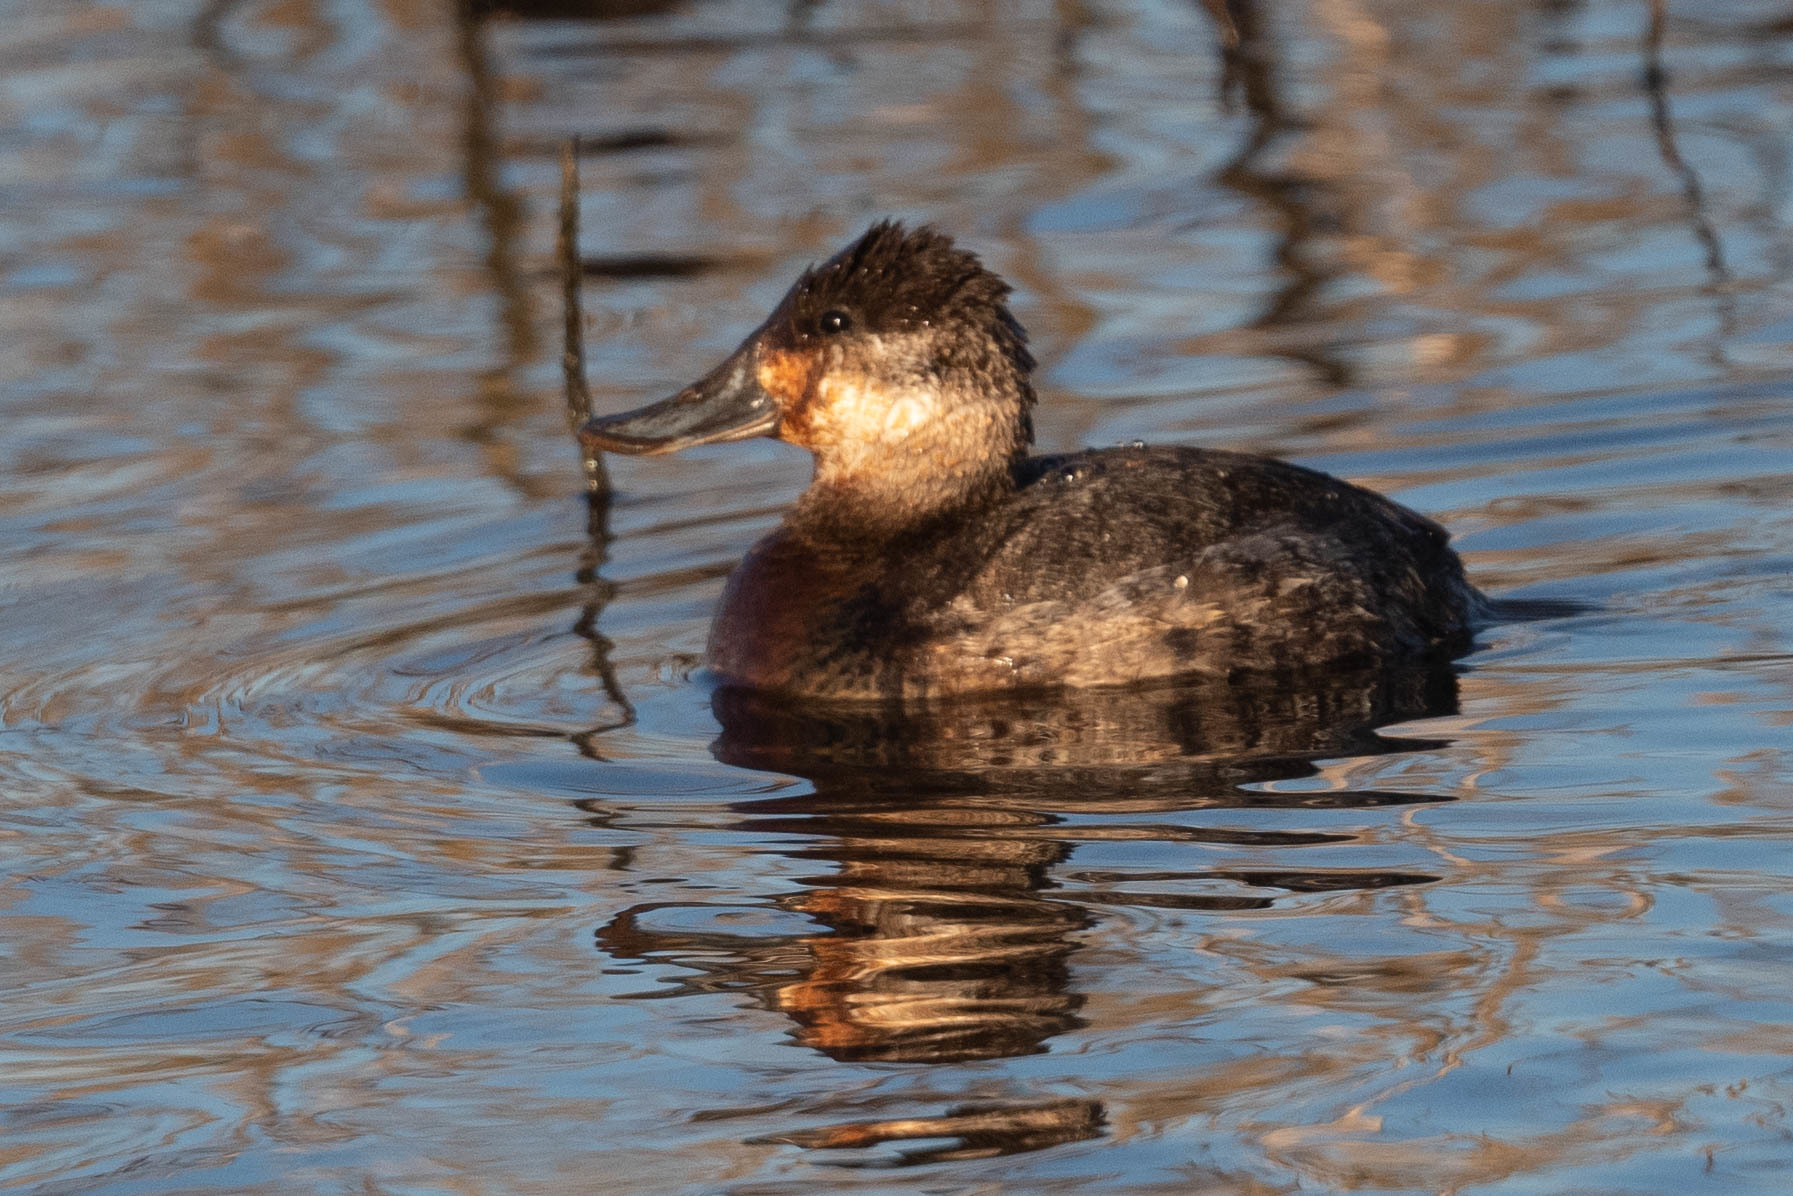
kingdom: Animalia
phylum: Chordata
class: Aves
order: Anseriformes
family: Anatidae
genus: Oxyura
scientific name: Oxyura jamaicensis
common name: Ruddy duck
